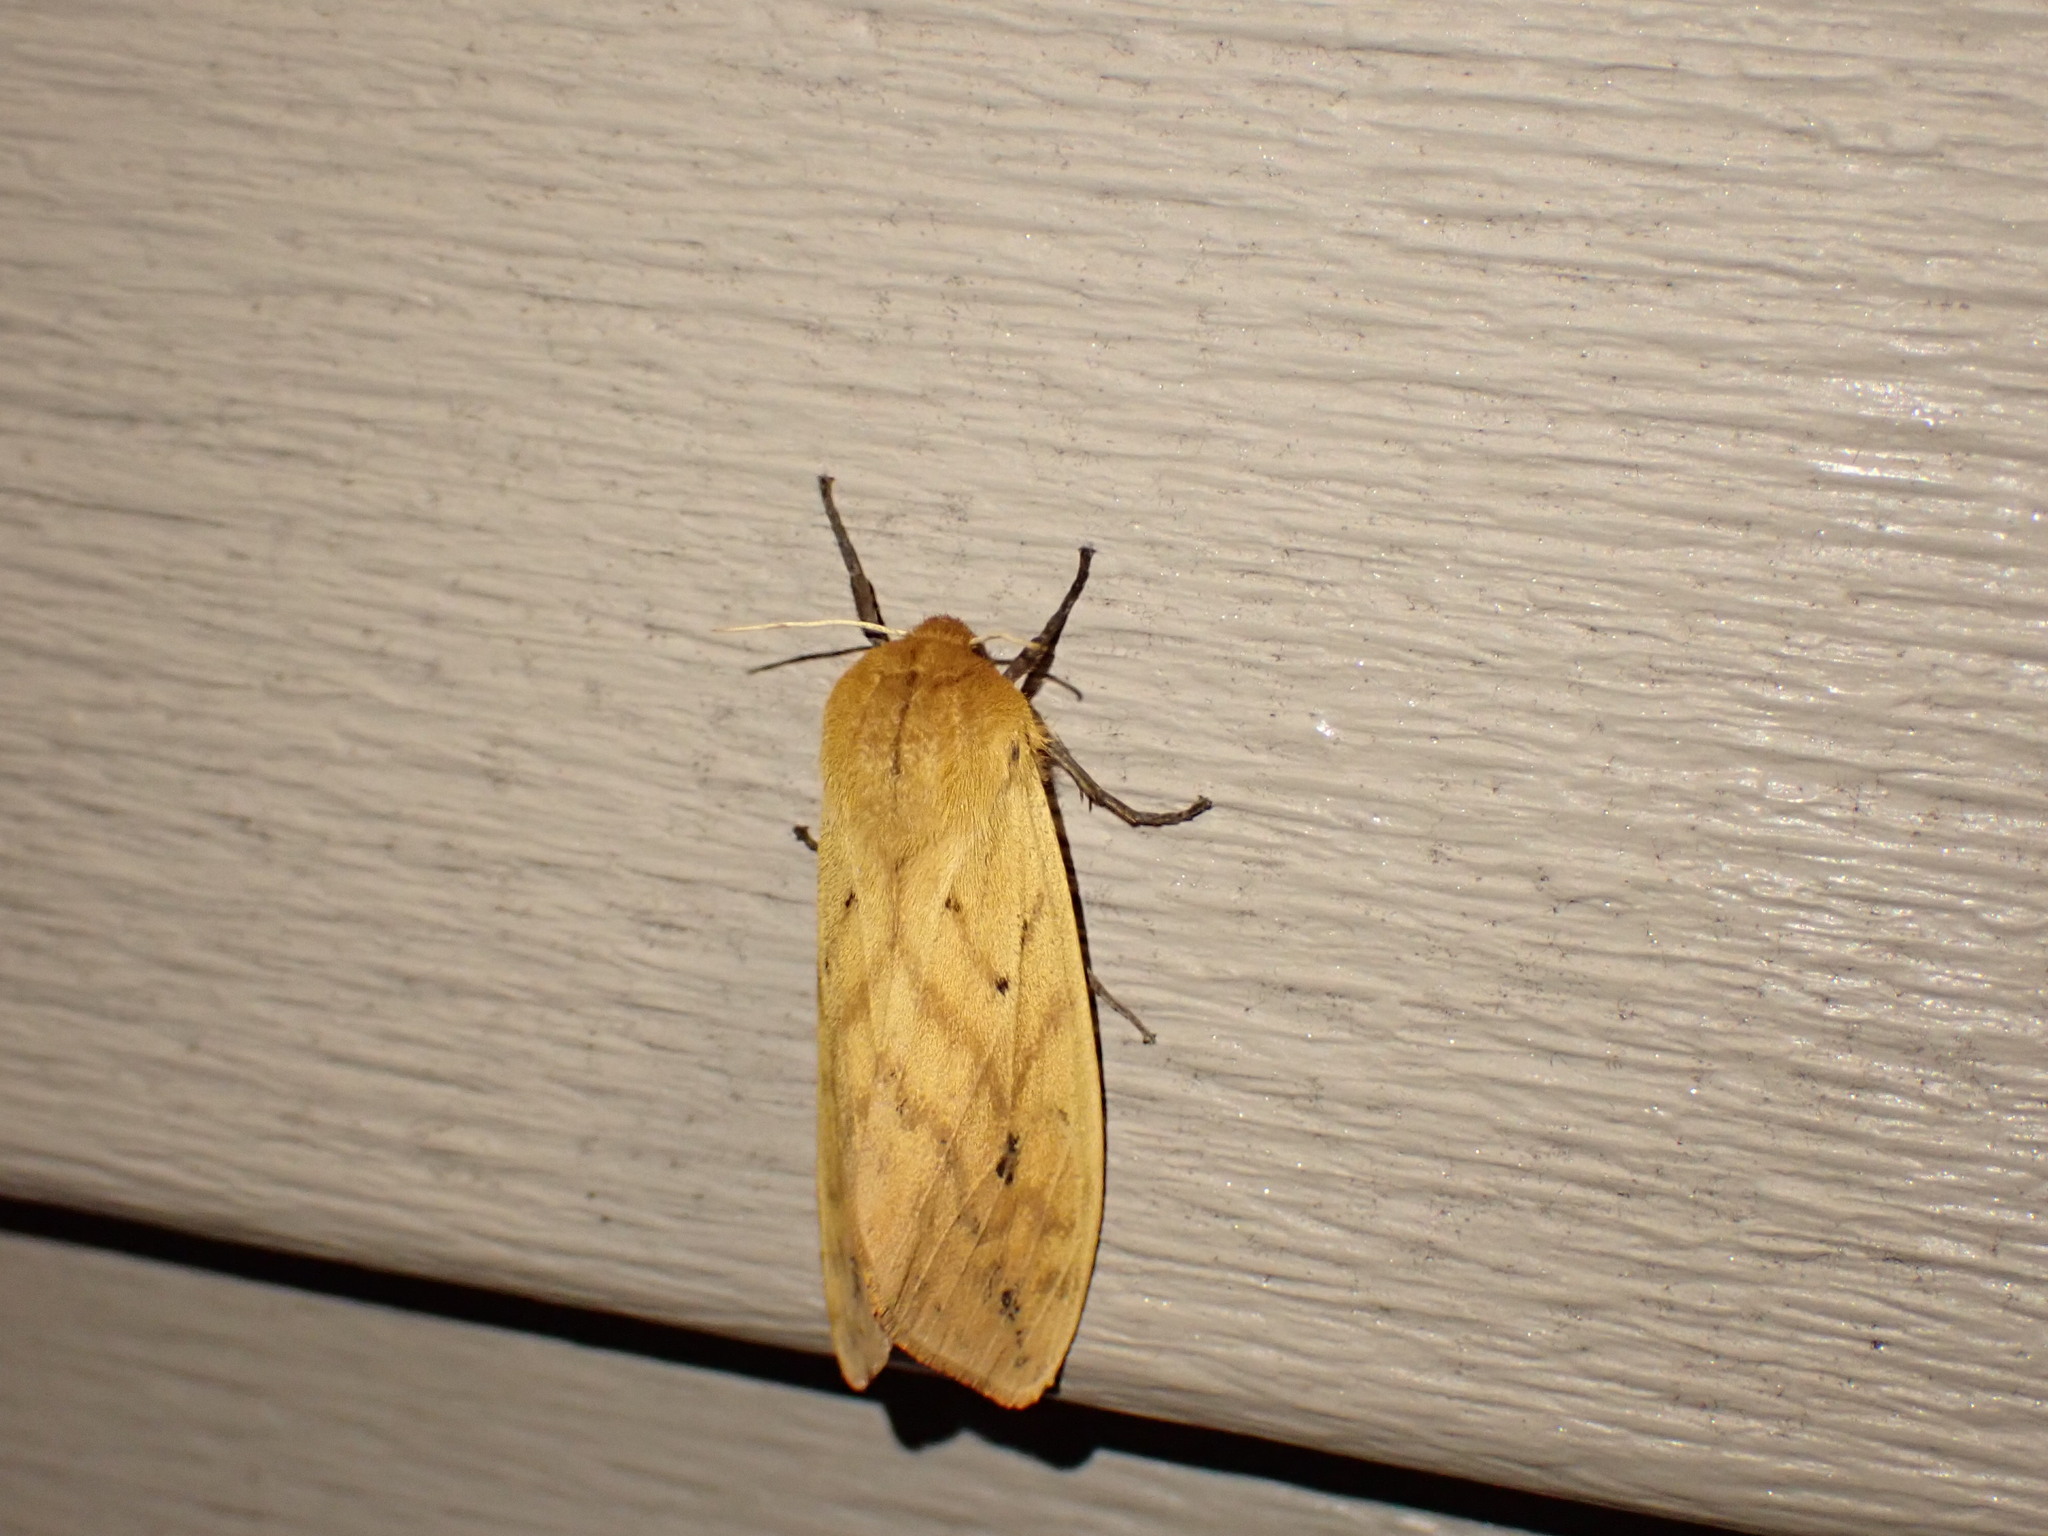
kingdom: Animalia
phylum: Arthropoda
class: Insecta
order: Lepidoptera
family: Erebidae
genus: Pyrrharctia
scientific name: Pyrrharctia isabella
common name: Isabella tiger moth
